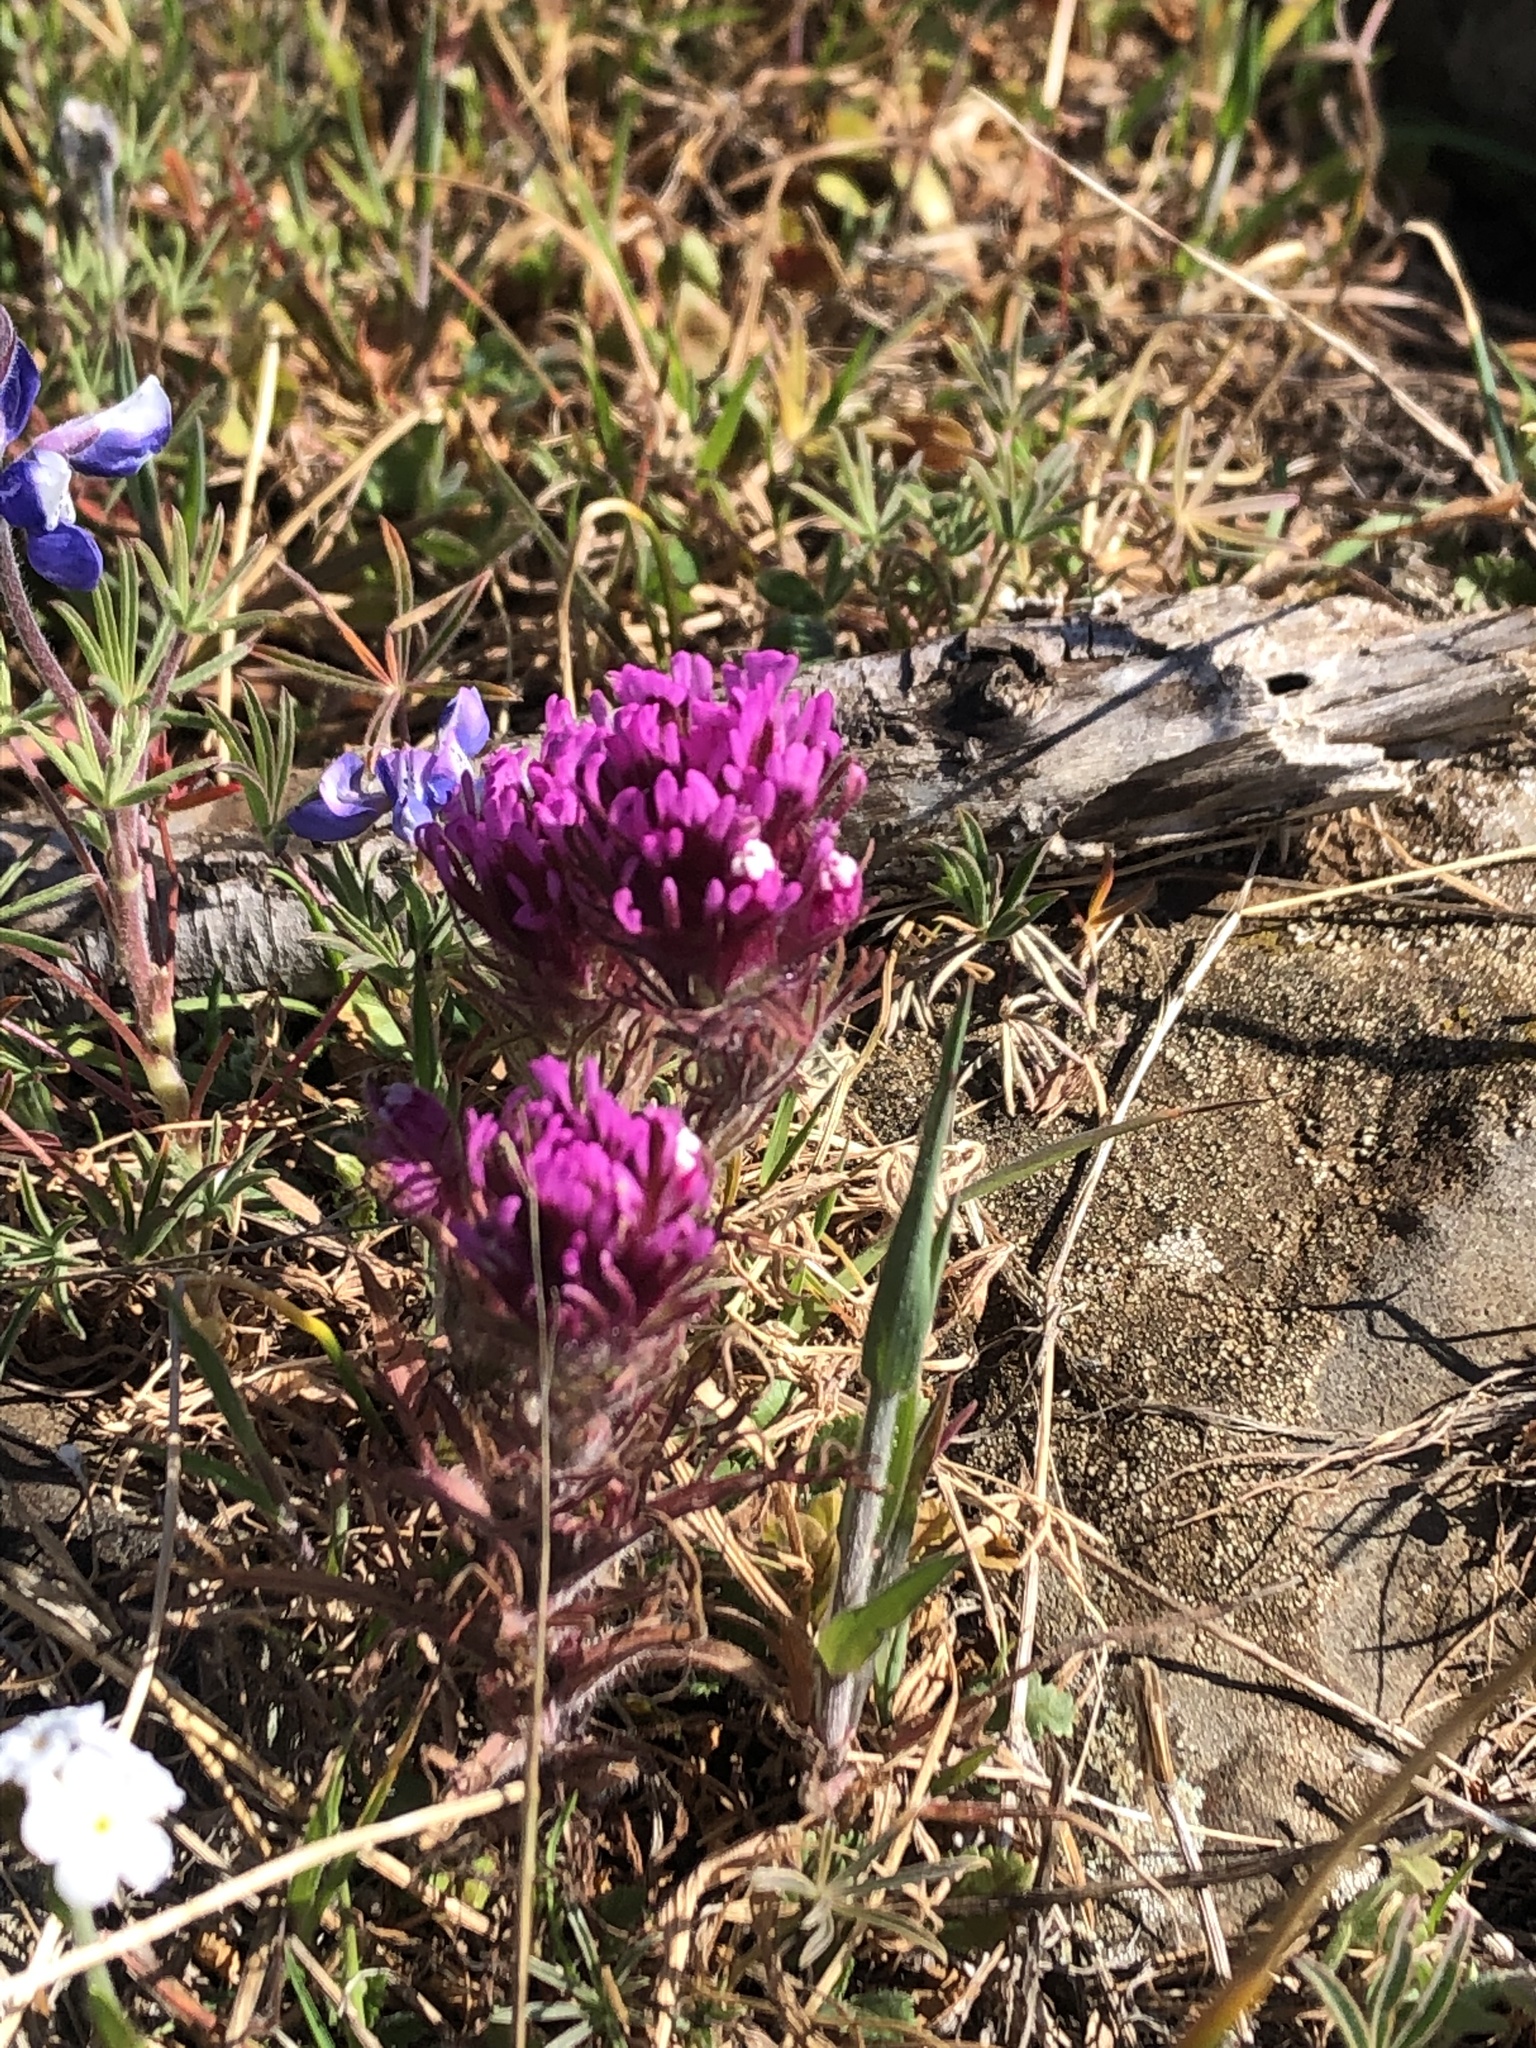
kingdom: Plantae
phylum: Tracheophyta
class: Magnoliopsida
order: Lamiales
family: Orobanchaceae
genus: Castilleja
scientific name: Castilleja exserta
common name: Purple owl-clover
